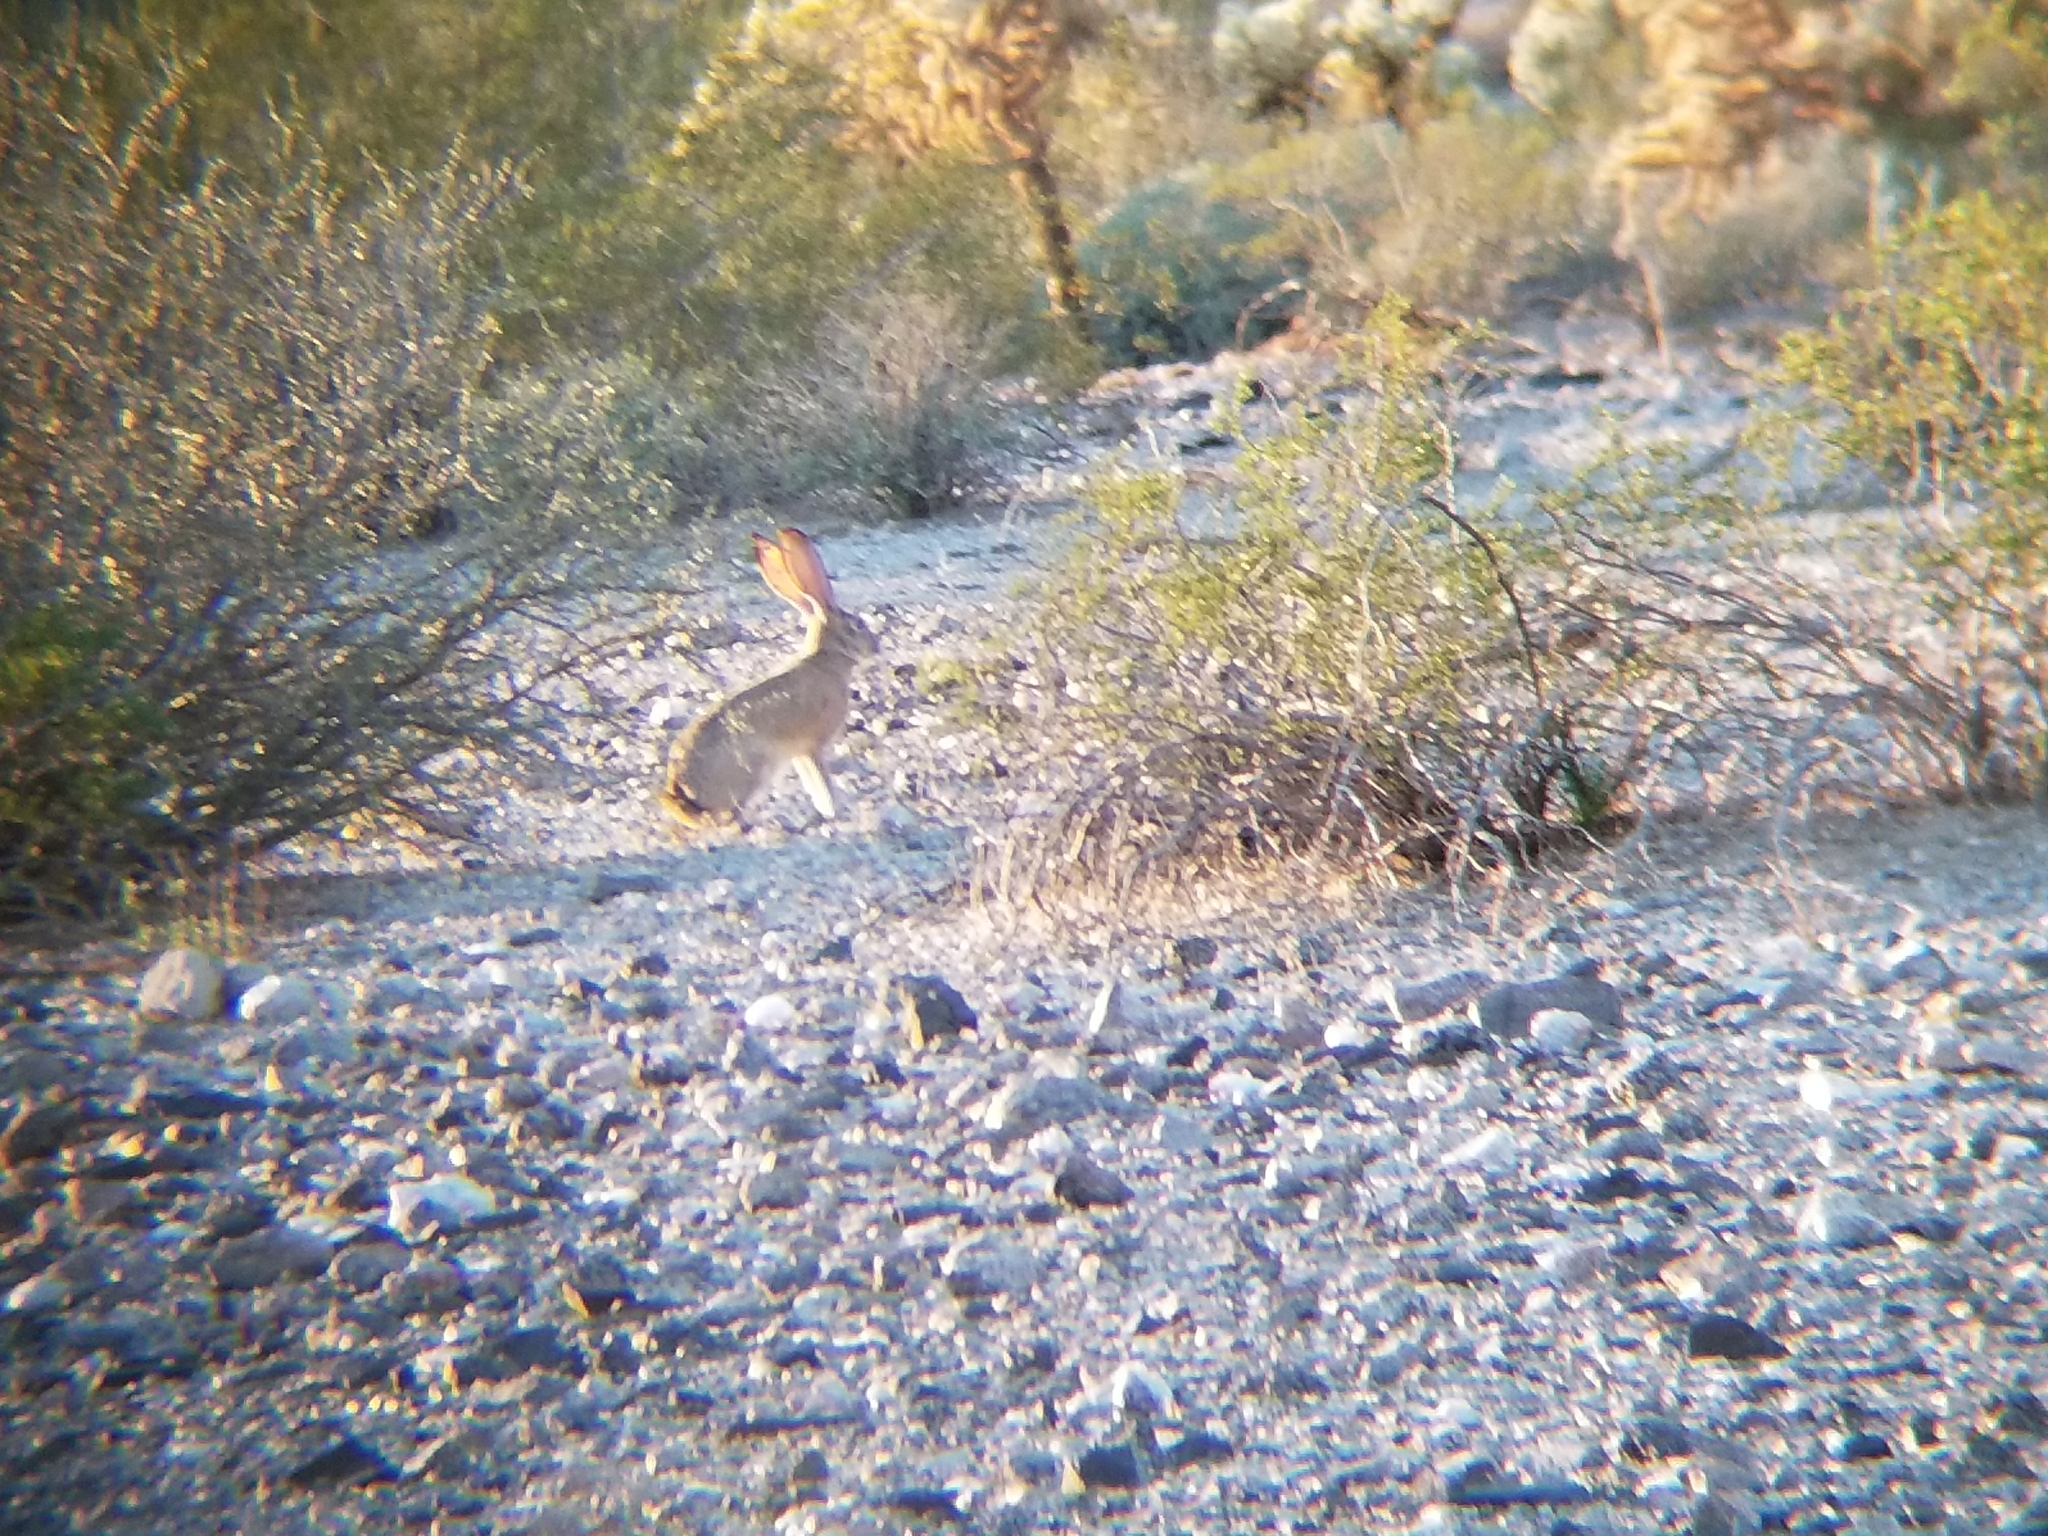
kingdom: Animalia
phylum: Chordata
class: Mammalia
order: Lagomorpha
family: Leporidae
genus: Lepus
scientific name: Lepus californicus
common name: Black-tailed jackrabbit
